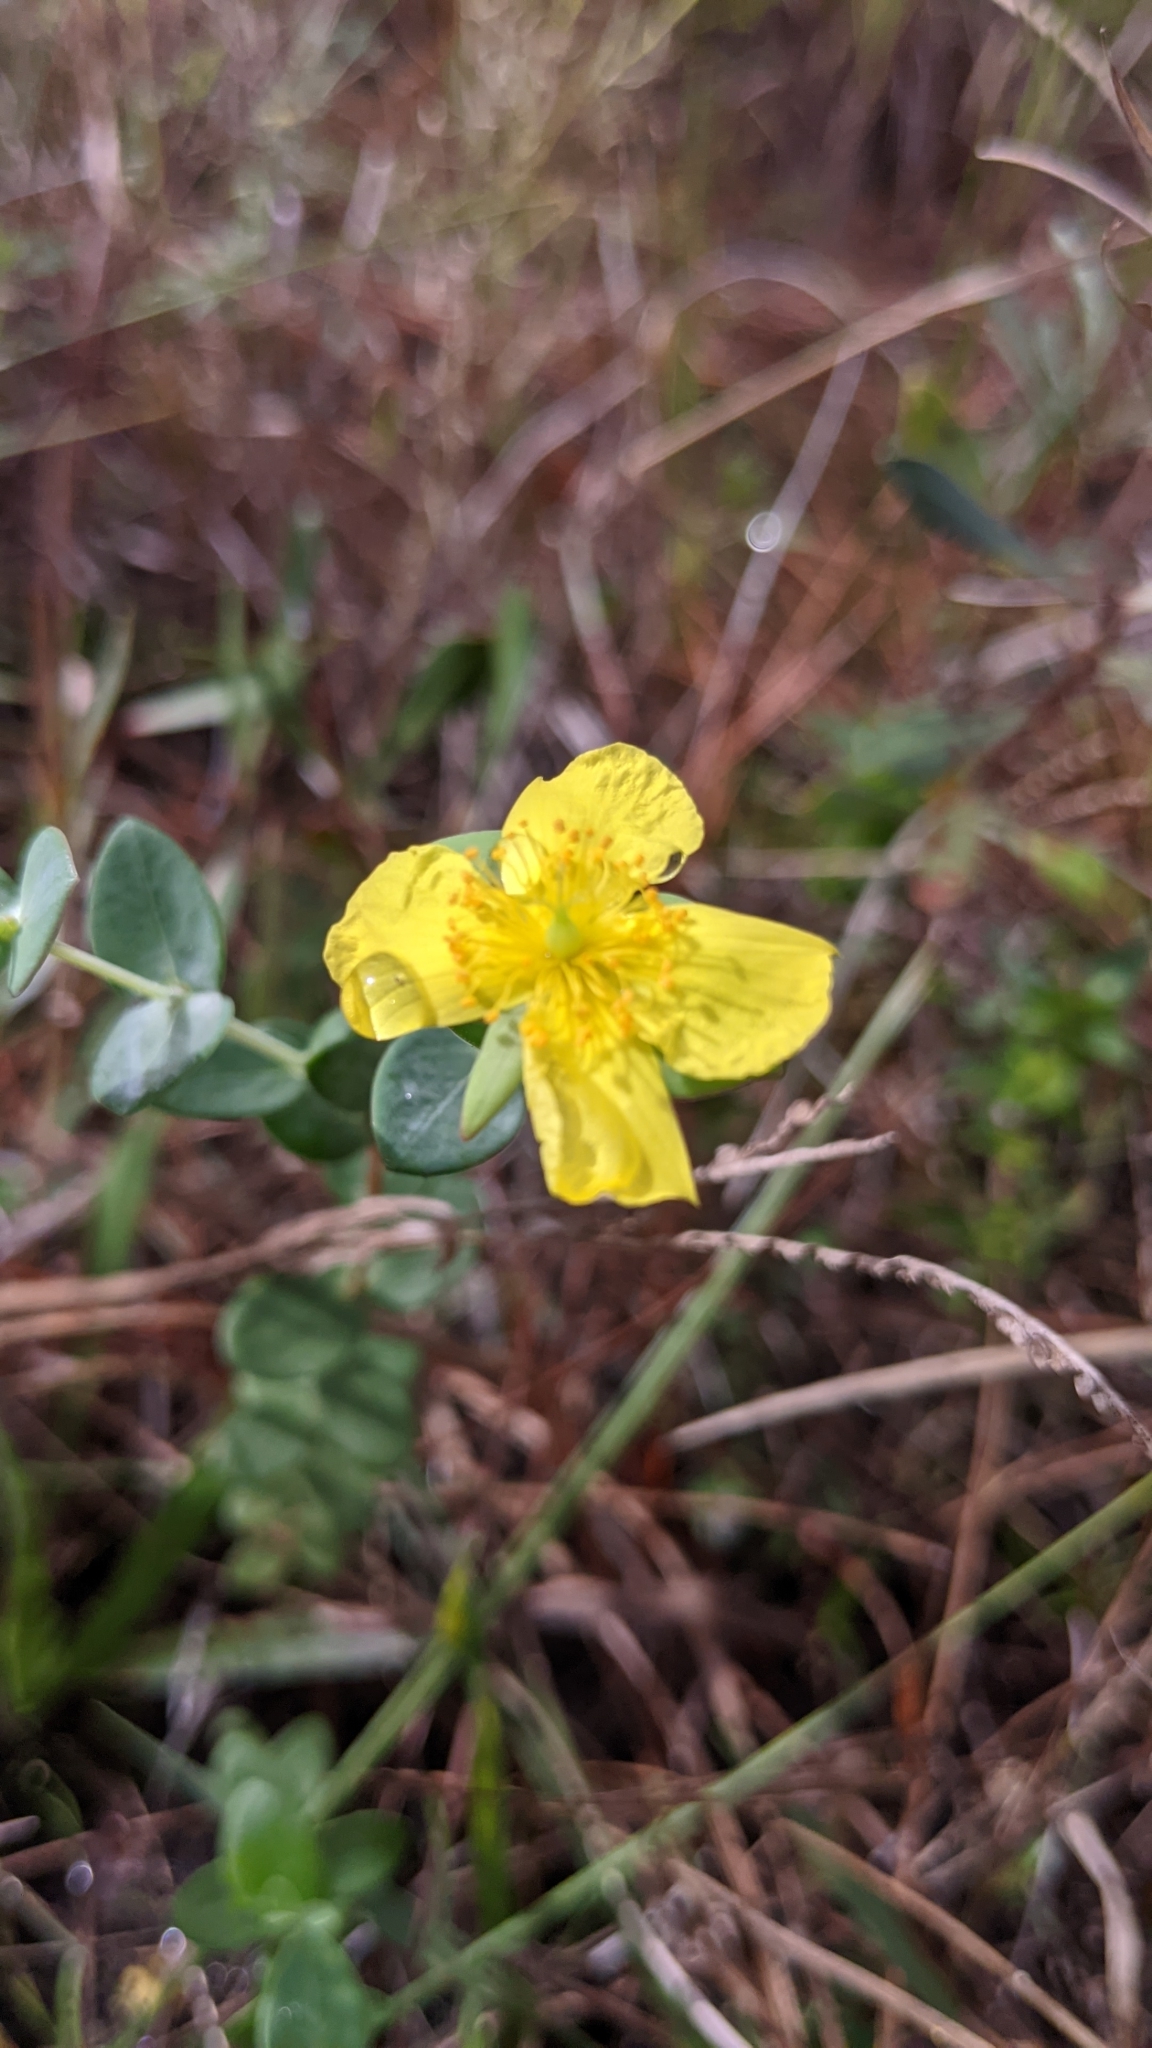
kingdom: Plantae
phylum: Tracheophyta
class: Magnoliopsida
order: Malpighiales
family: Hypericaceae
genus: Hypericum
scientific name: Hypericum tetrapetalum
